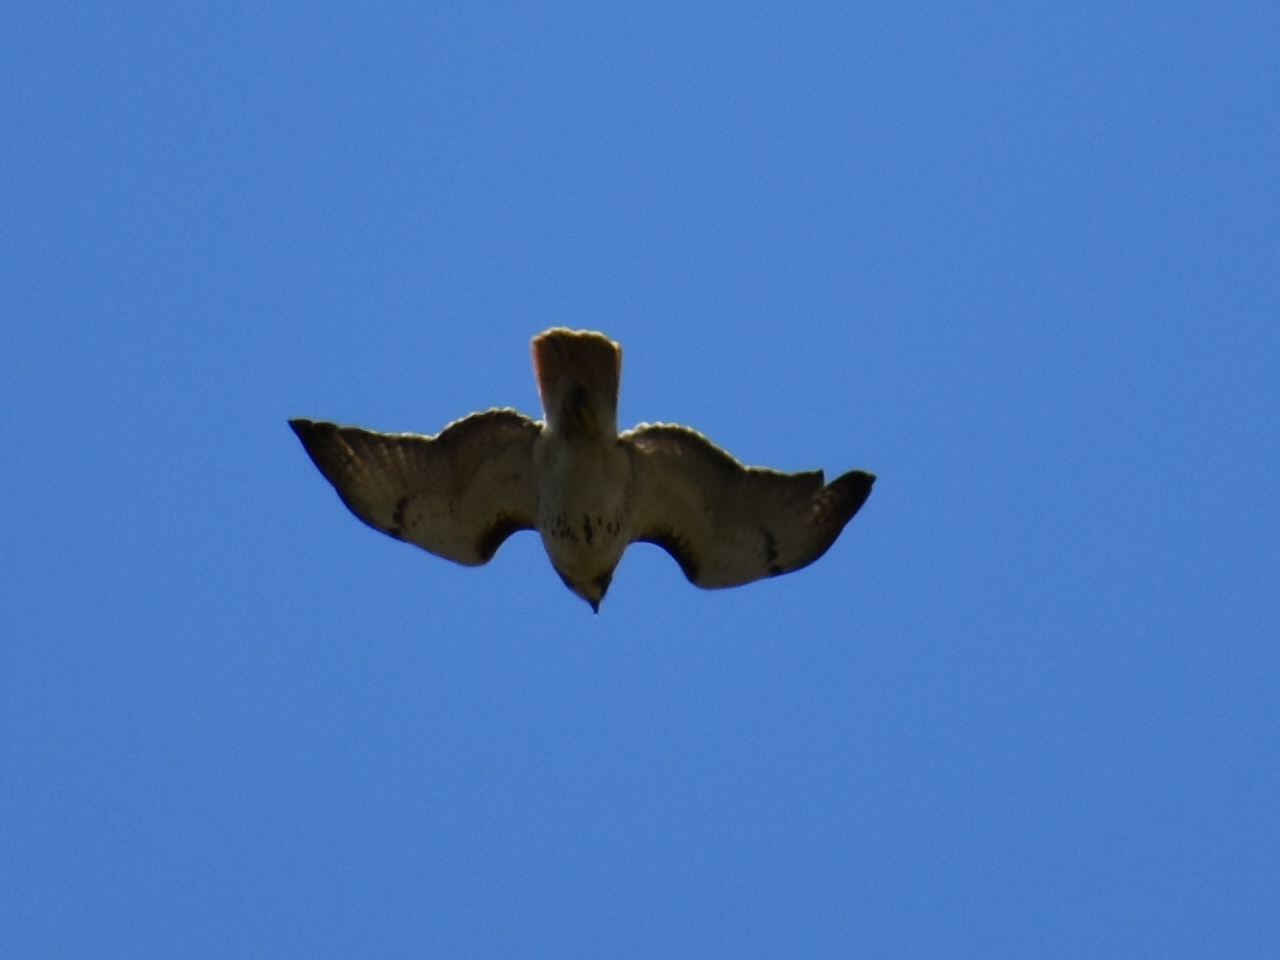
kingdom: Animalia
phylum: Chordata
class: Aves
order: Accipitriformes
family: Accipitridae
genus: Buteo
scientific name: Buteo jamaicensis
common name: Red-tailed hawk
